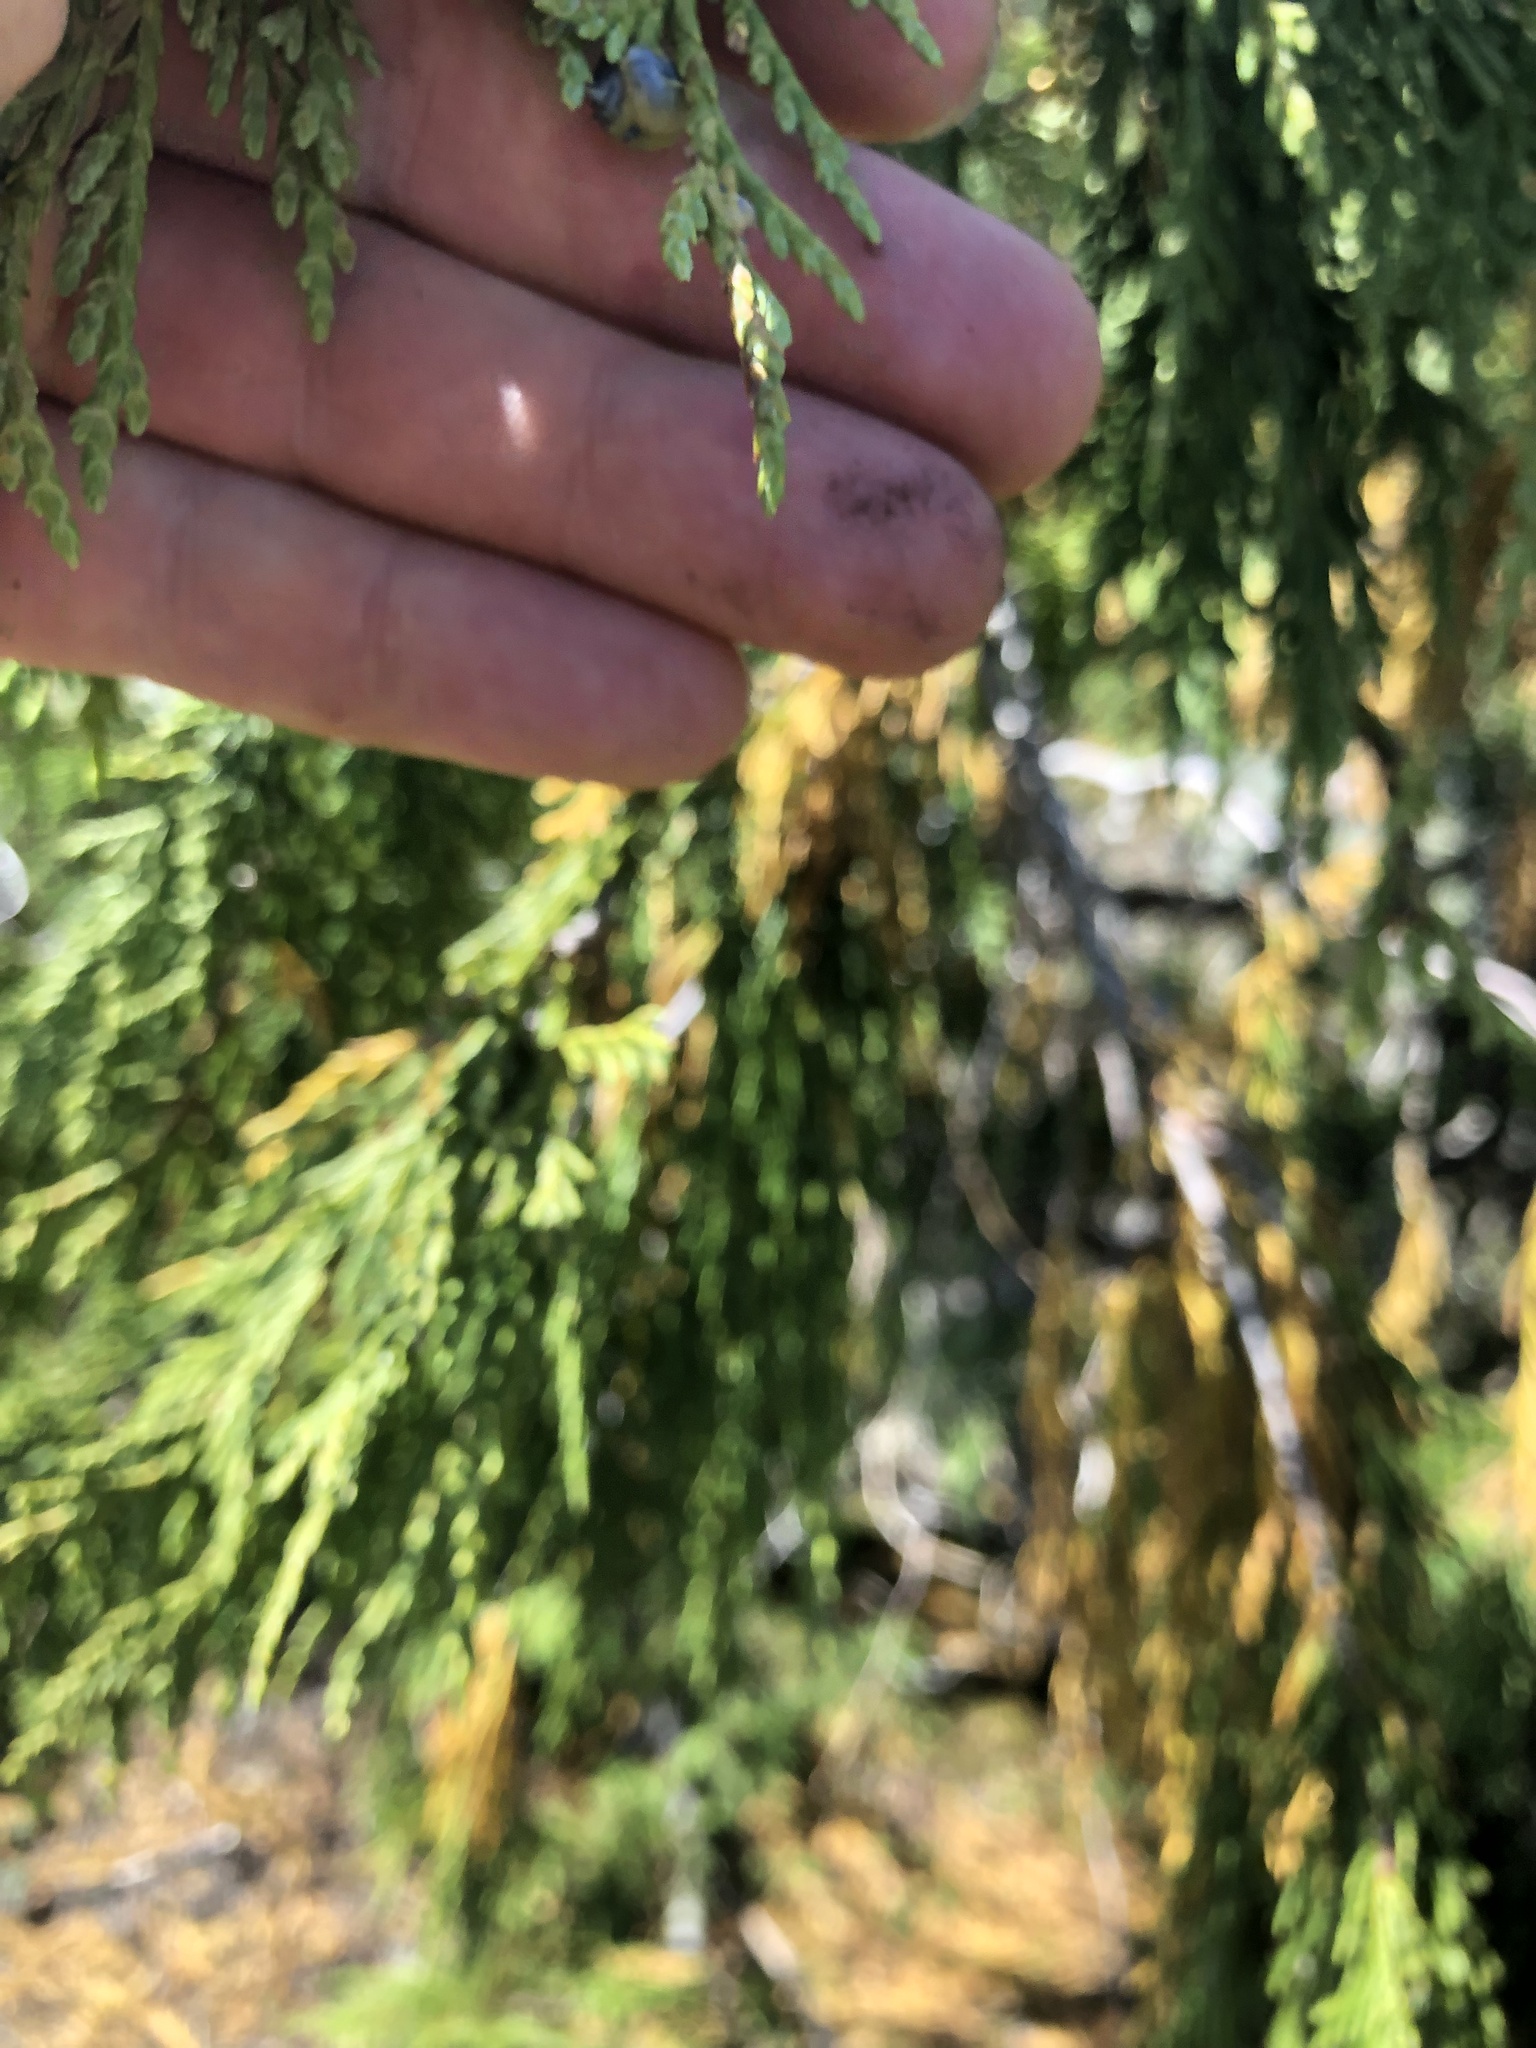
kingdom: Plantae
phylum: Tracheophyta
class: Pinopsida
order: Pinales
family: Cupressaceae
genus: Xanthocyparis
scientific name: Xanthocyparis nootkatensis
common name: Nootka cypress
